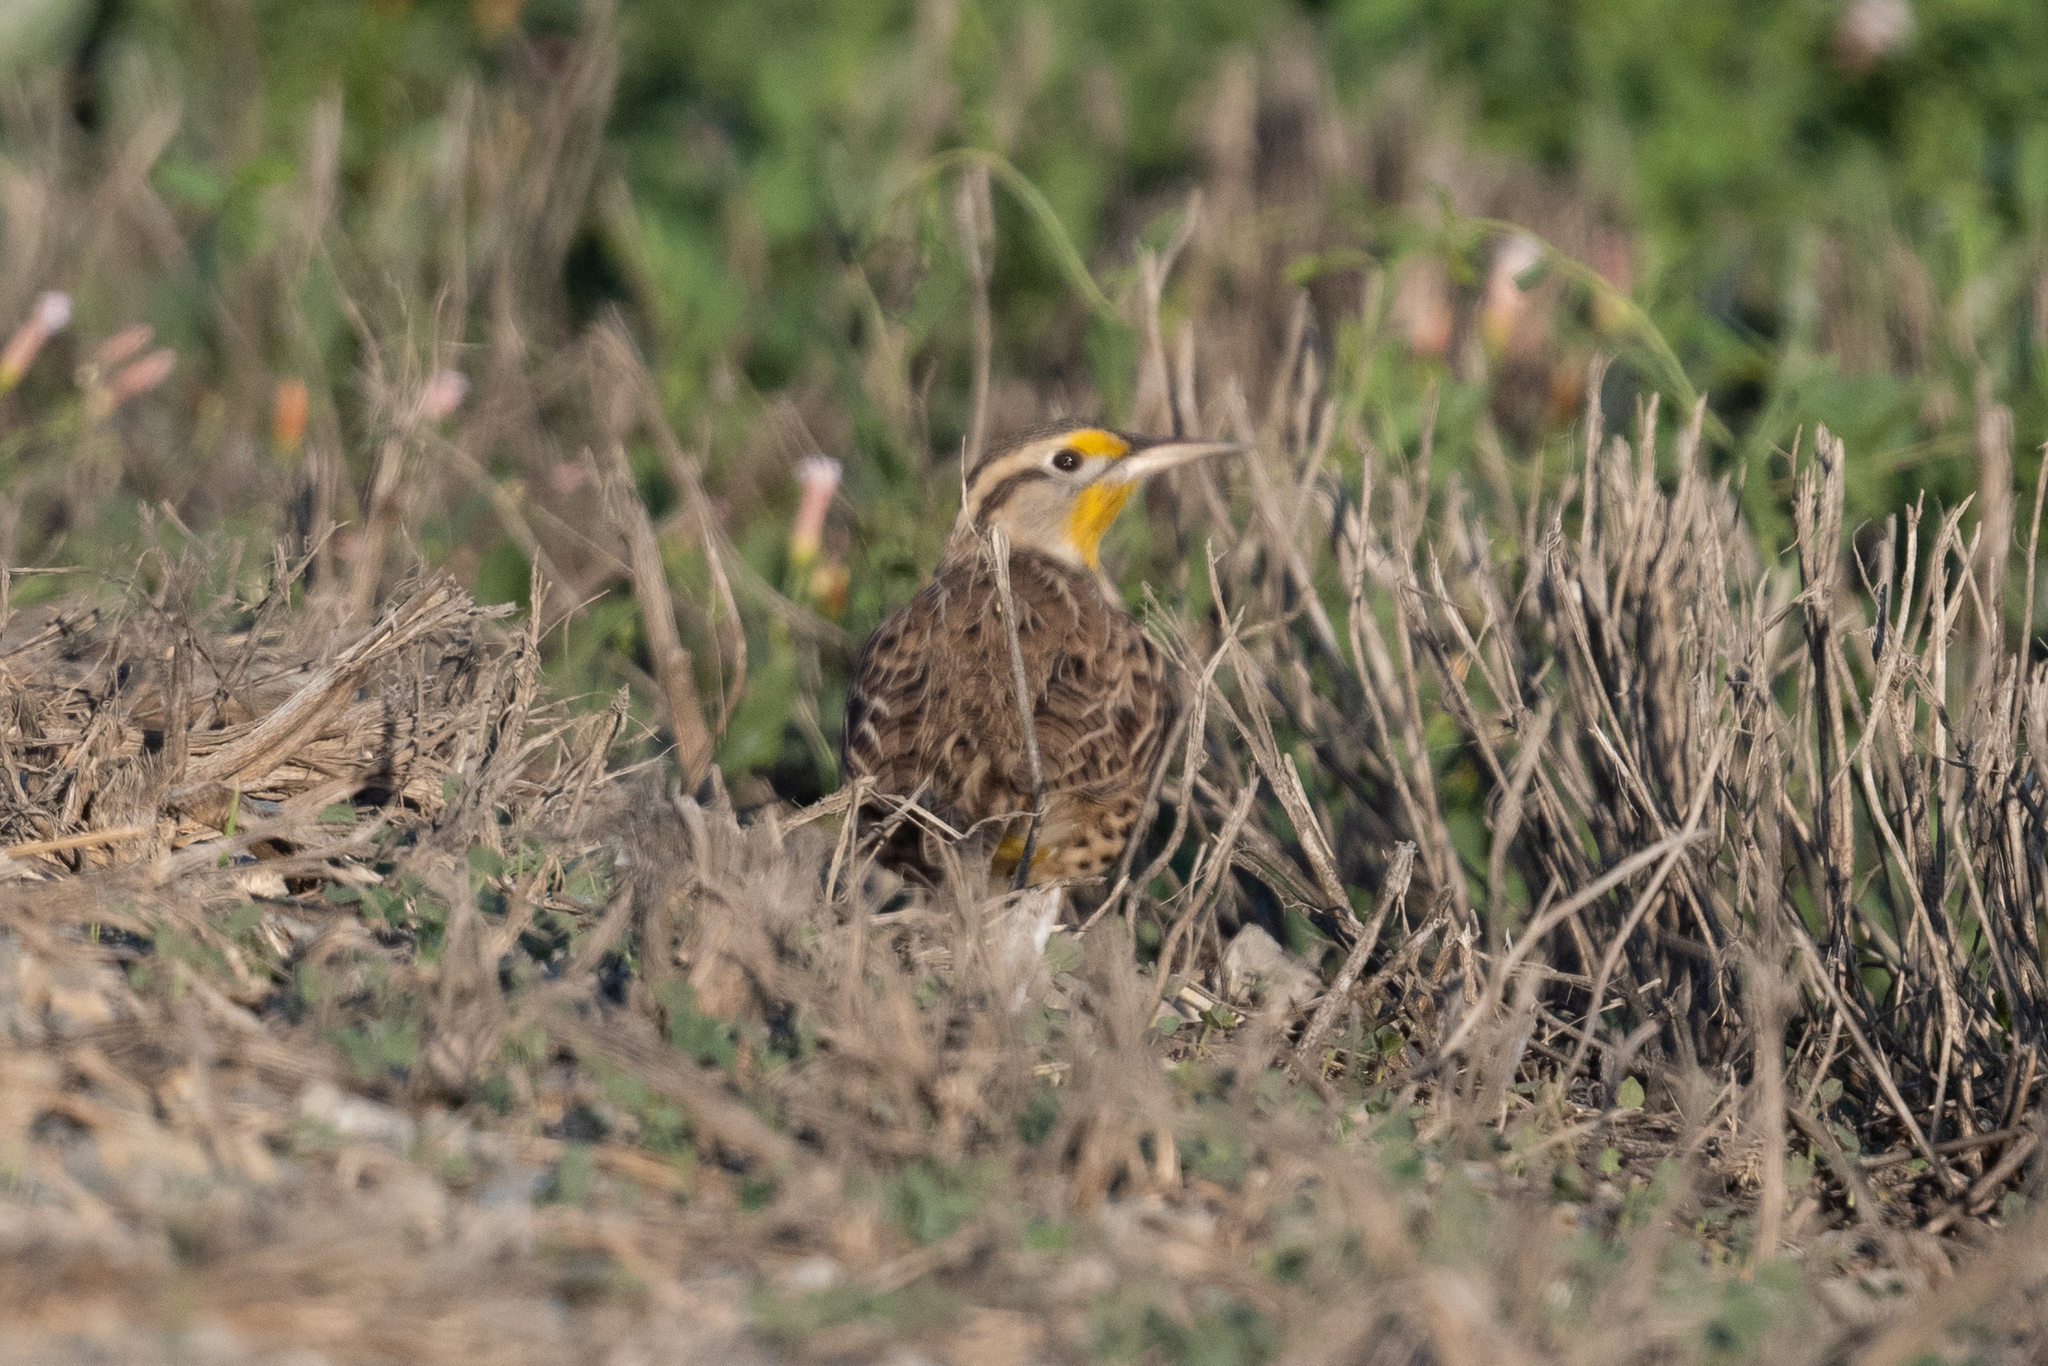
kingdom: Animalia
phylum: Chordata
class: Aves
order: Passeriformes
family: Icteridae
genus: Sturnella
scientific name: Sturnella neglecta
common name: Western meadowlark
